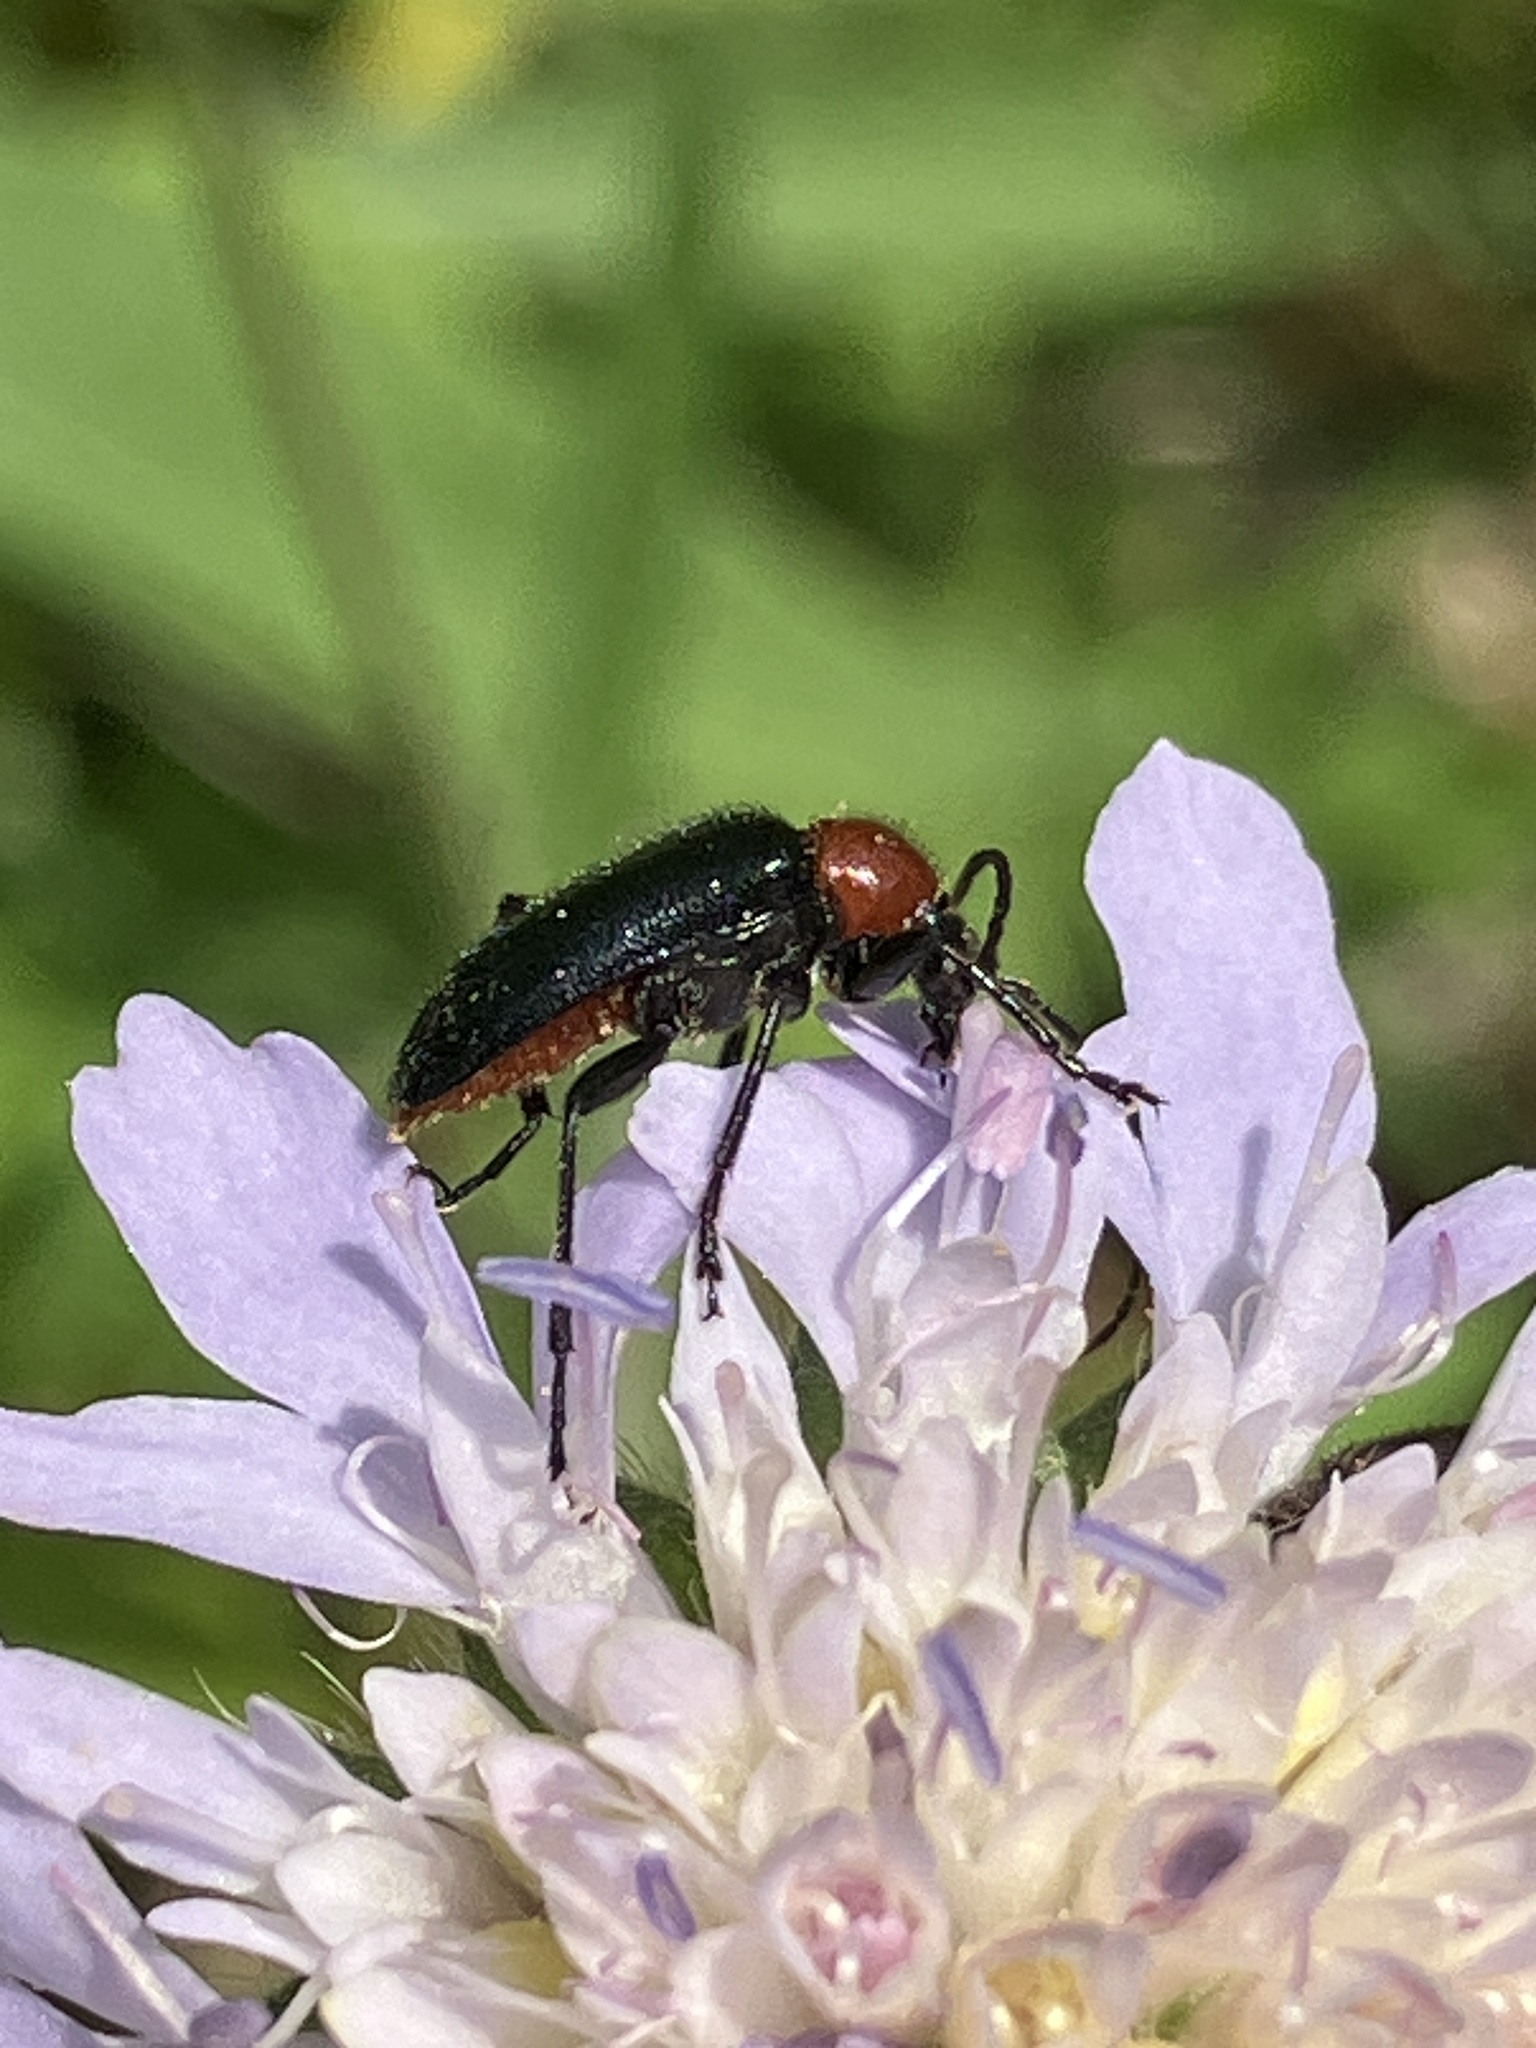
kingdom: Animalia
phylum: Arthropoda
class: Insecta
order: Coleoptera
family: Cerambycidae
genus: Dinoptera
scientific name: Dinoptera collaris
